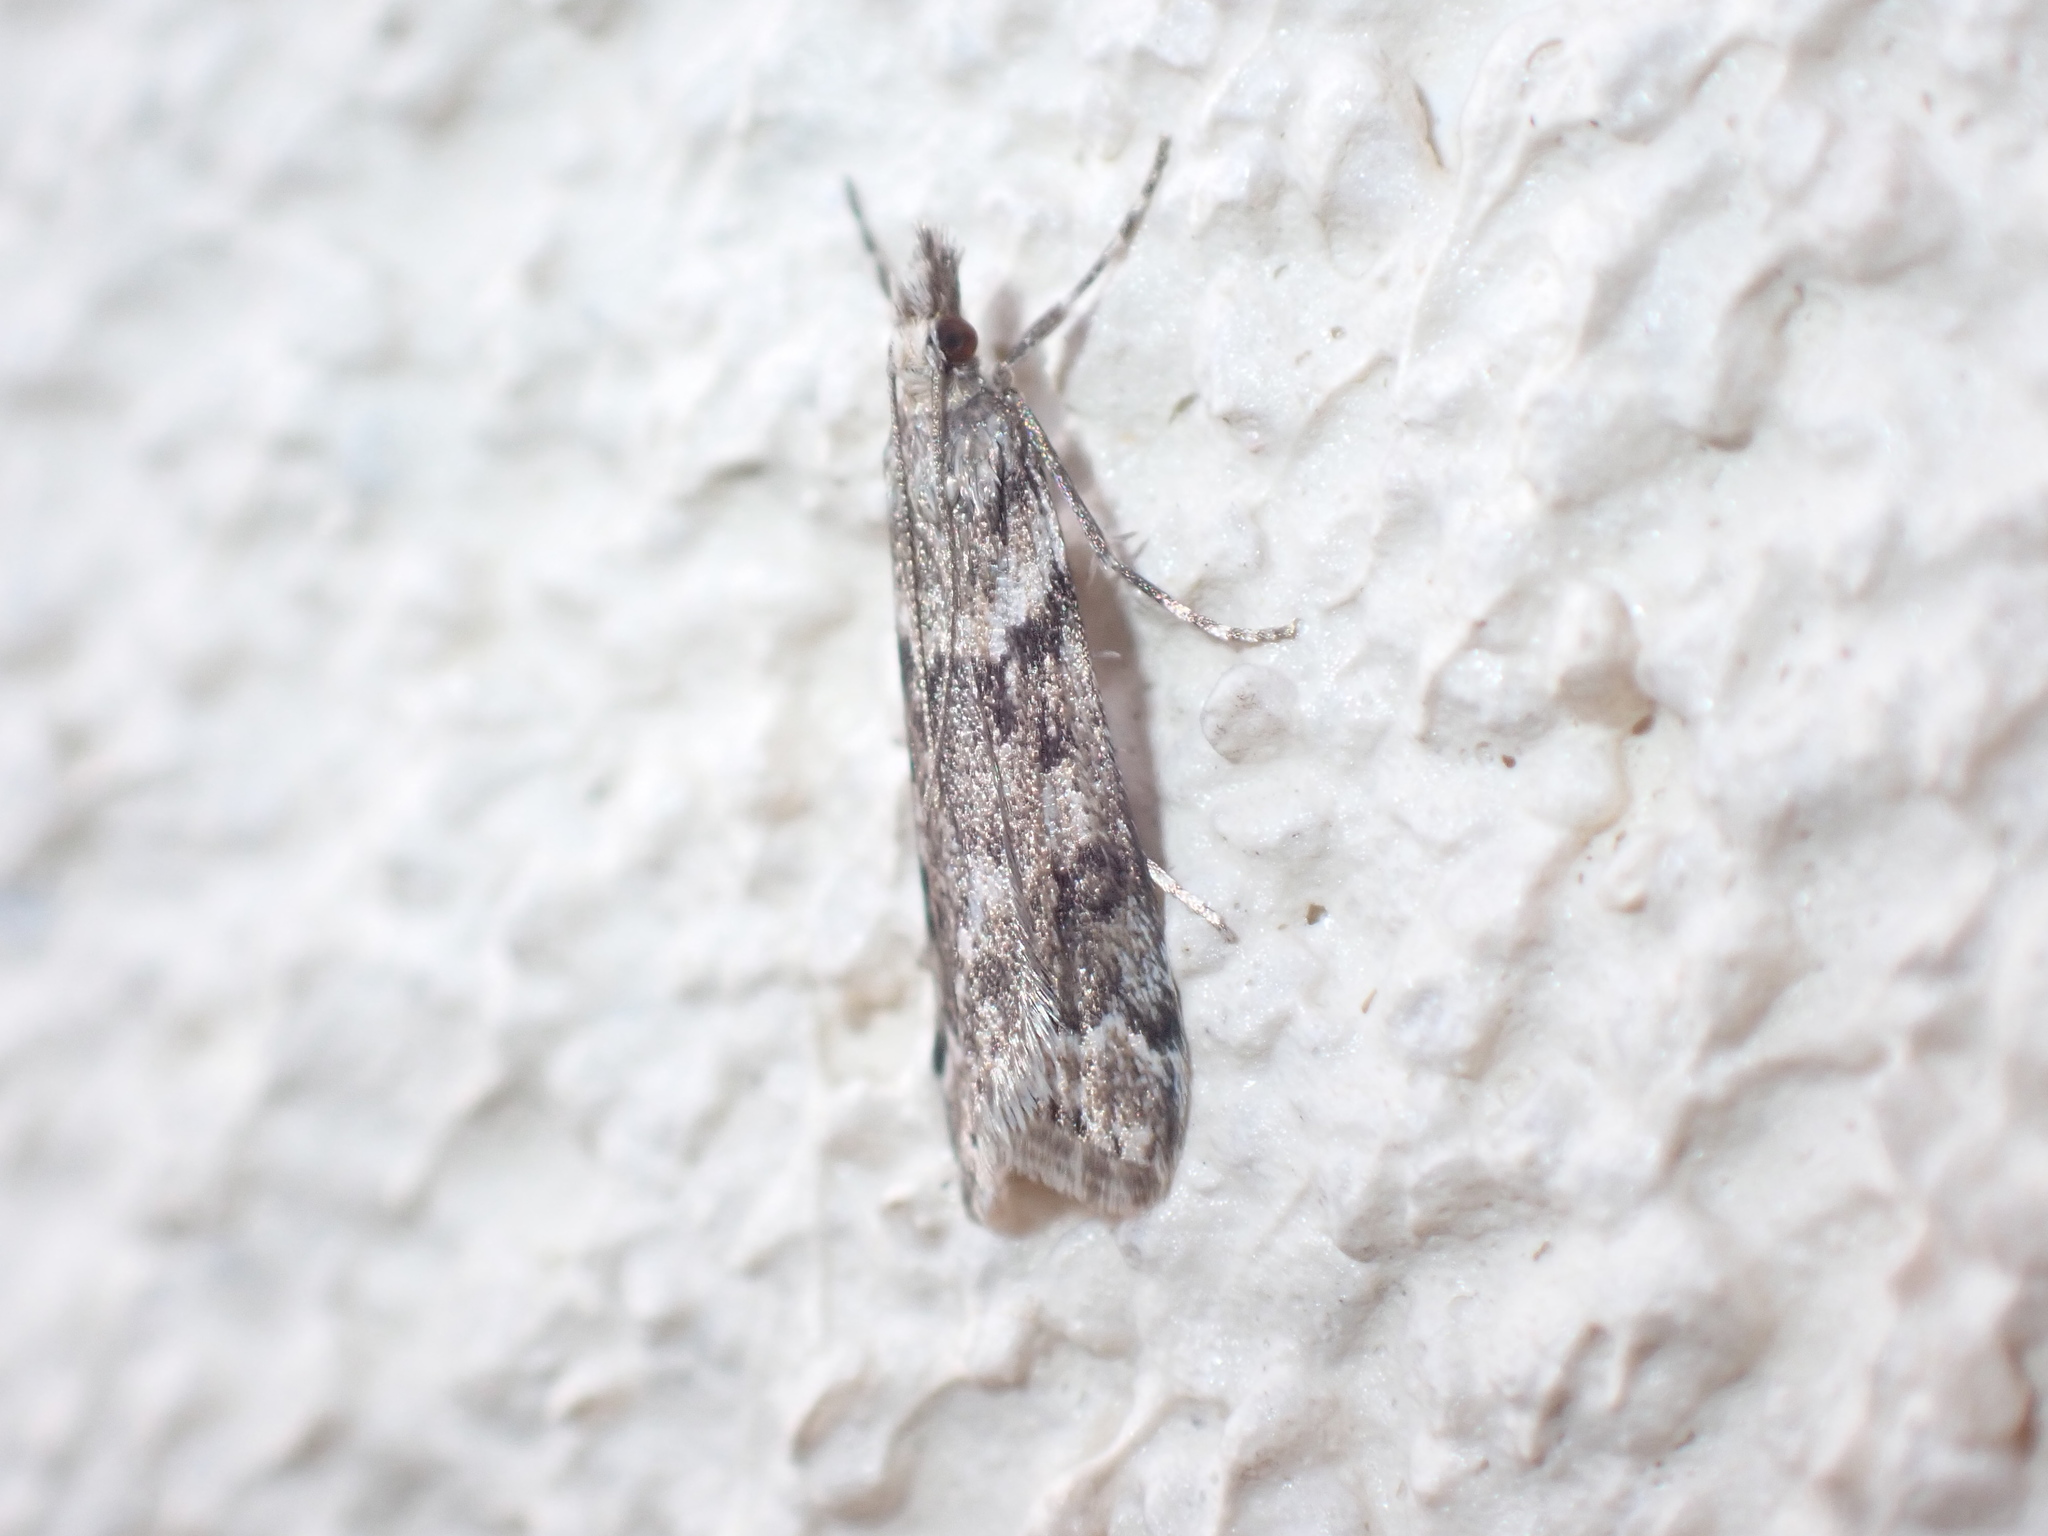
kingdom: Animalia
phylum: Arthropoda
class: Insecta
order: Lepidoptera
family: Crambidae
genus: Eudonia
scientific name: Eudonia angustea
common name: Narrow-winged grey
